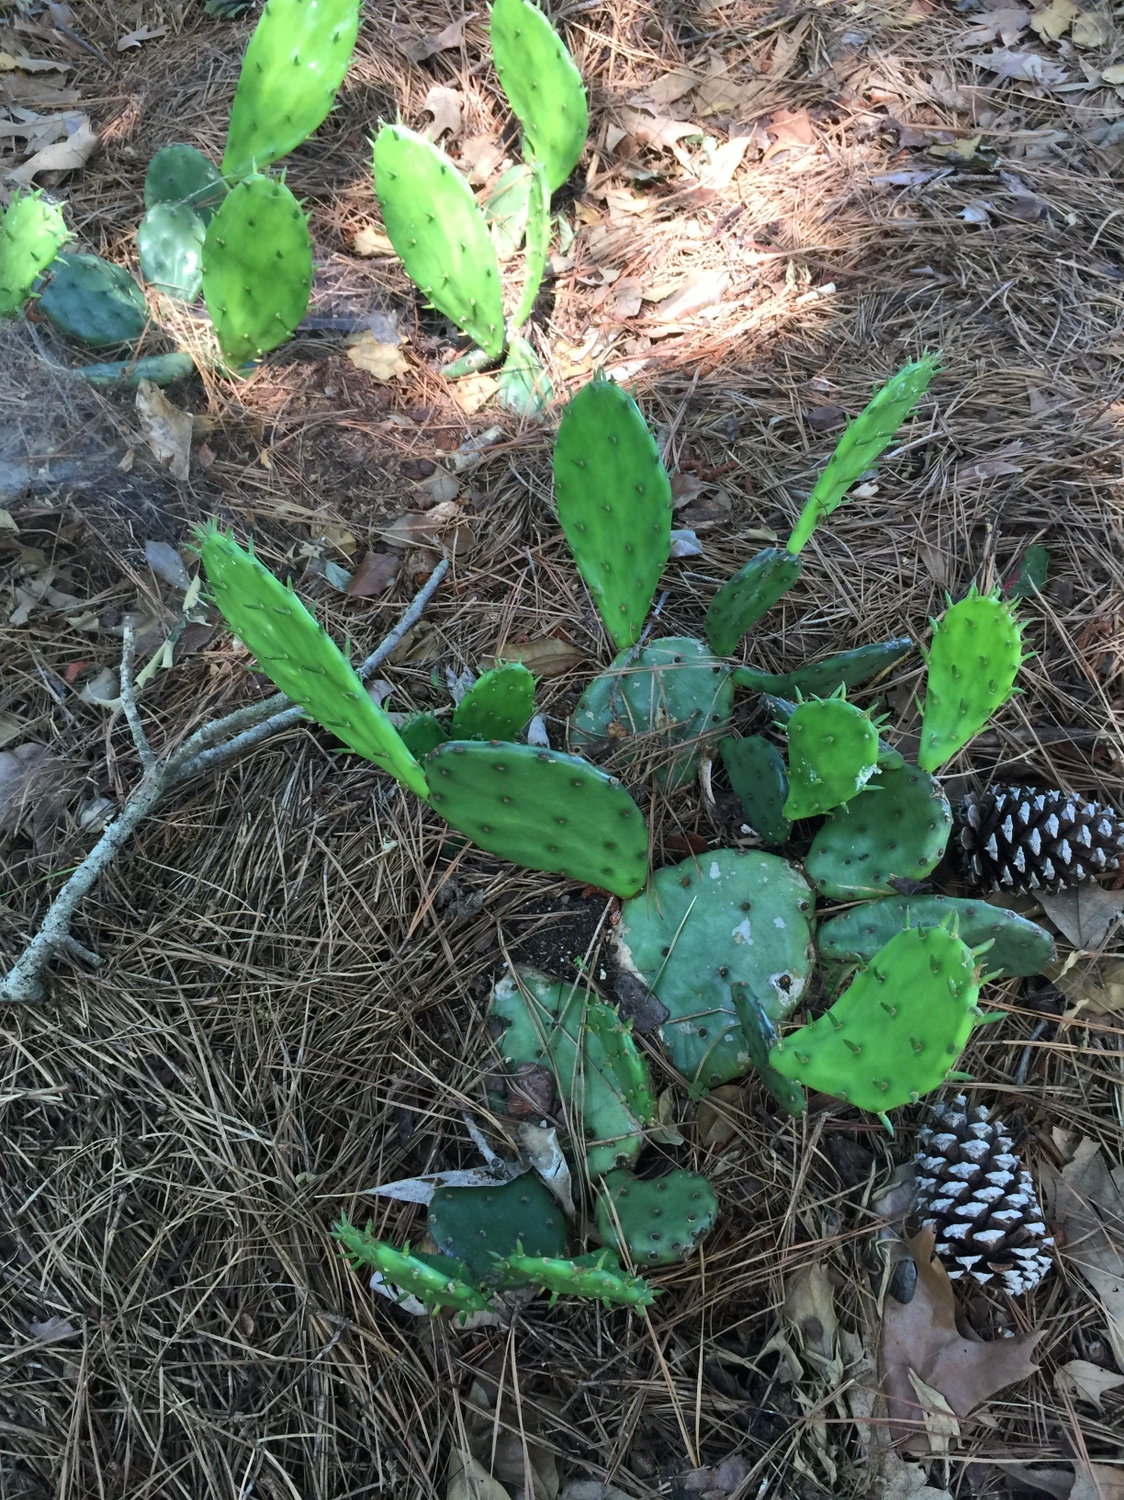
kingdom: Plantae
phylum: Tracheophyta
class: Magnoliopsida
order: Caryophyllales
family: Cactaceae
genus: Opuntia
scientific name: Opuntia humifusa
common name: Eastern prickly-pear
